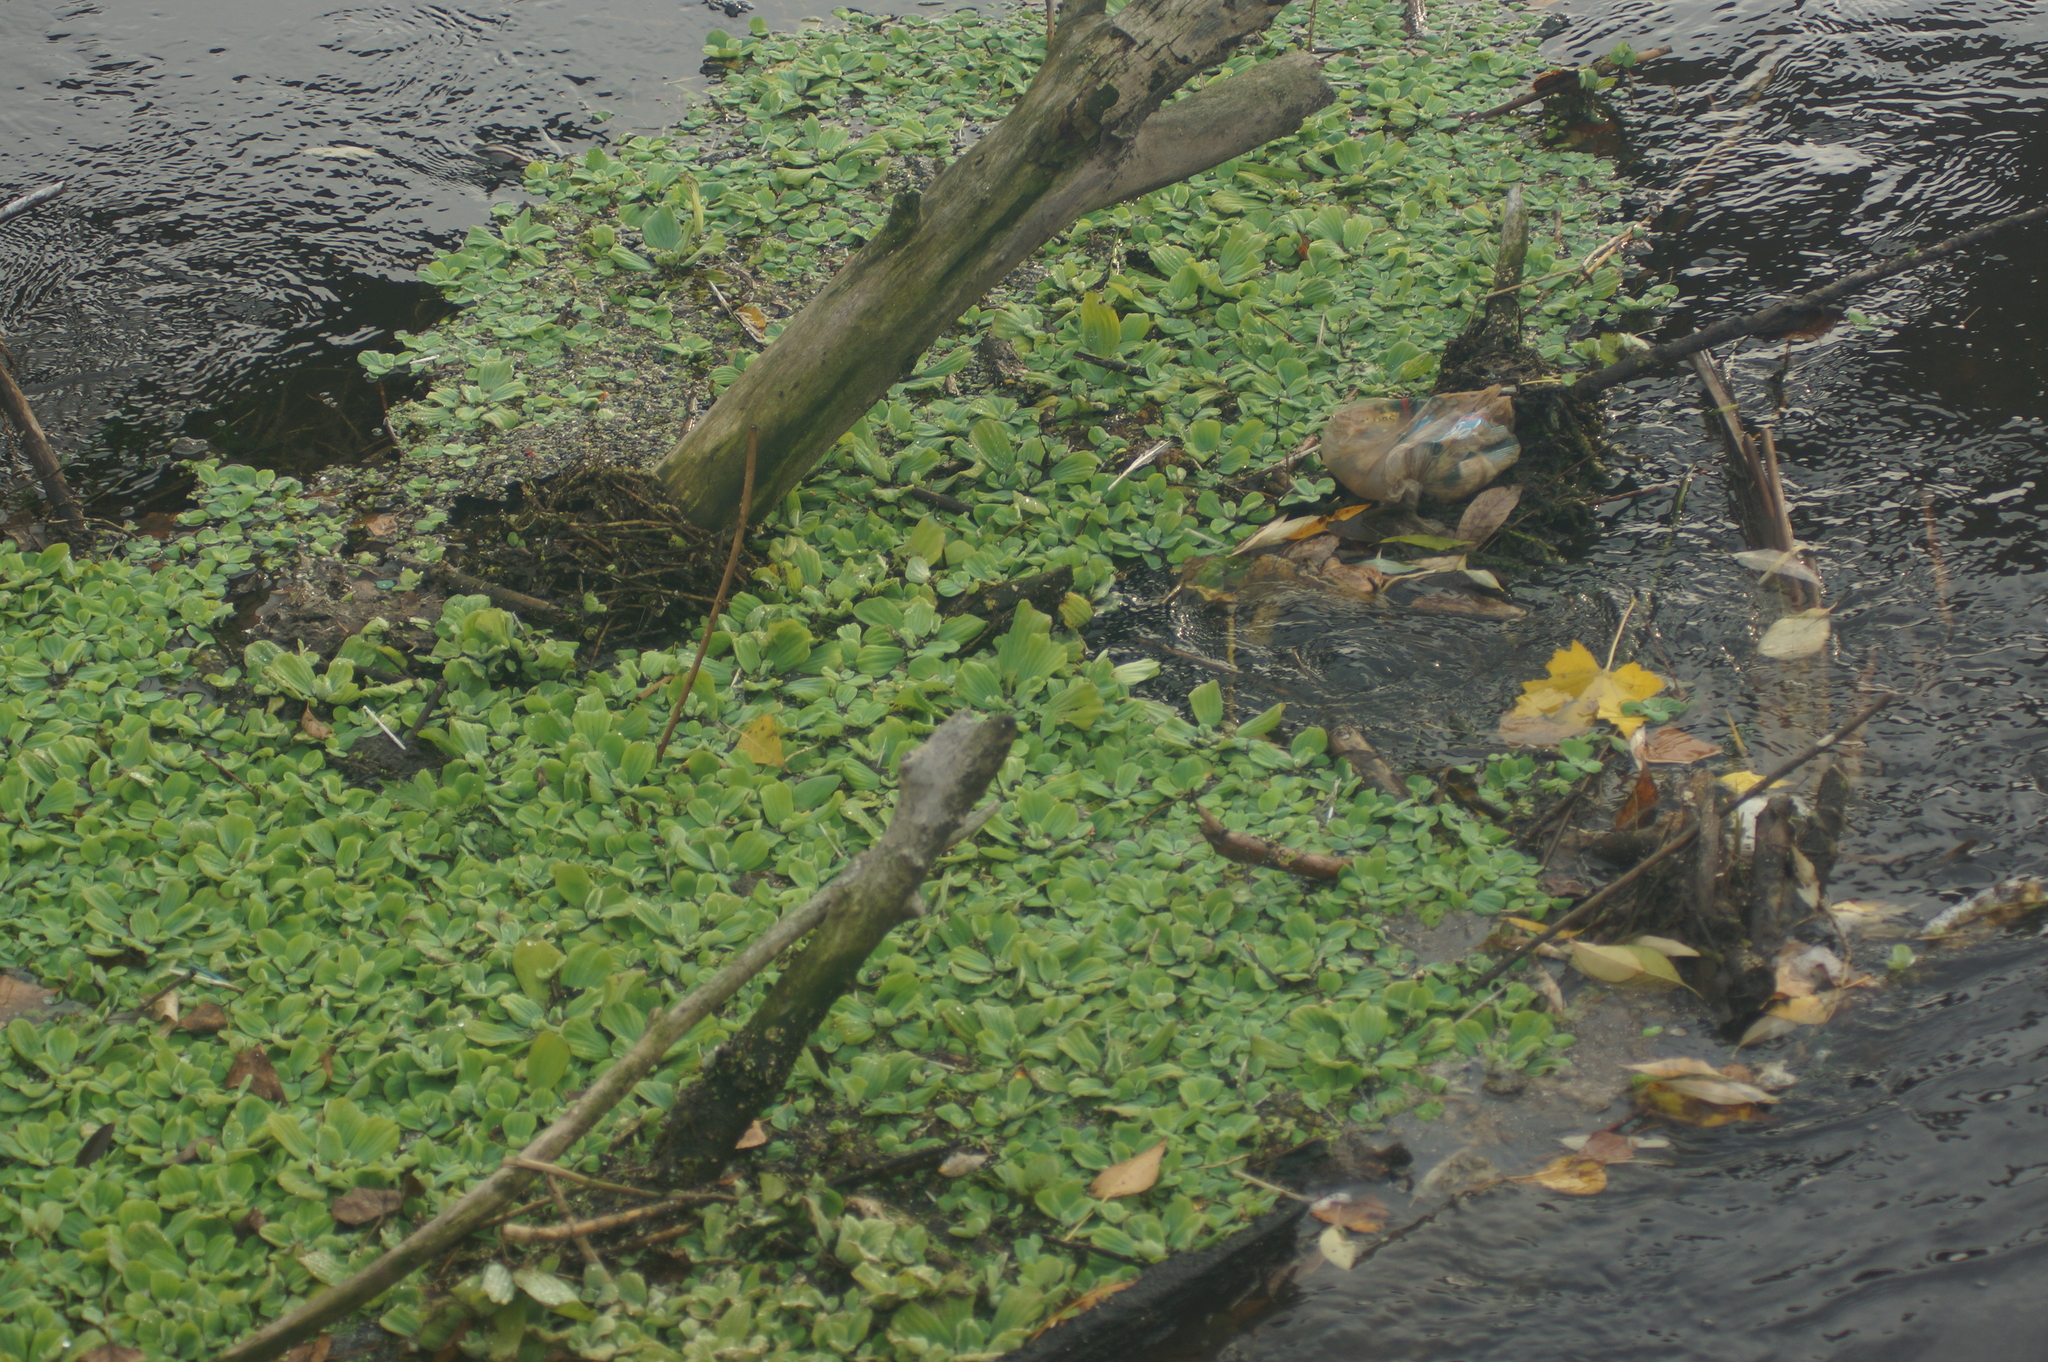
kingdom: Plantae
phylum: Tracheophyta
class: Liliopsida
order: Alismatales
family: Araceae
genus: Pistia
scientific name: Pistia stratiotes
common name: Water lettuce
